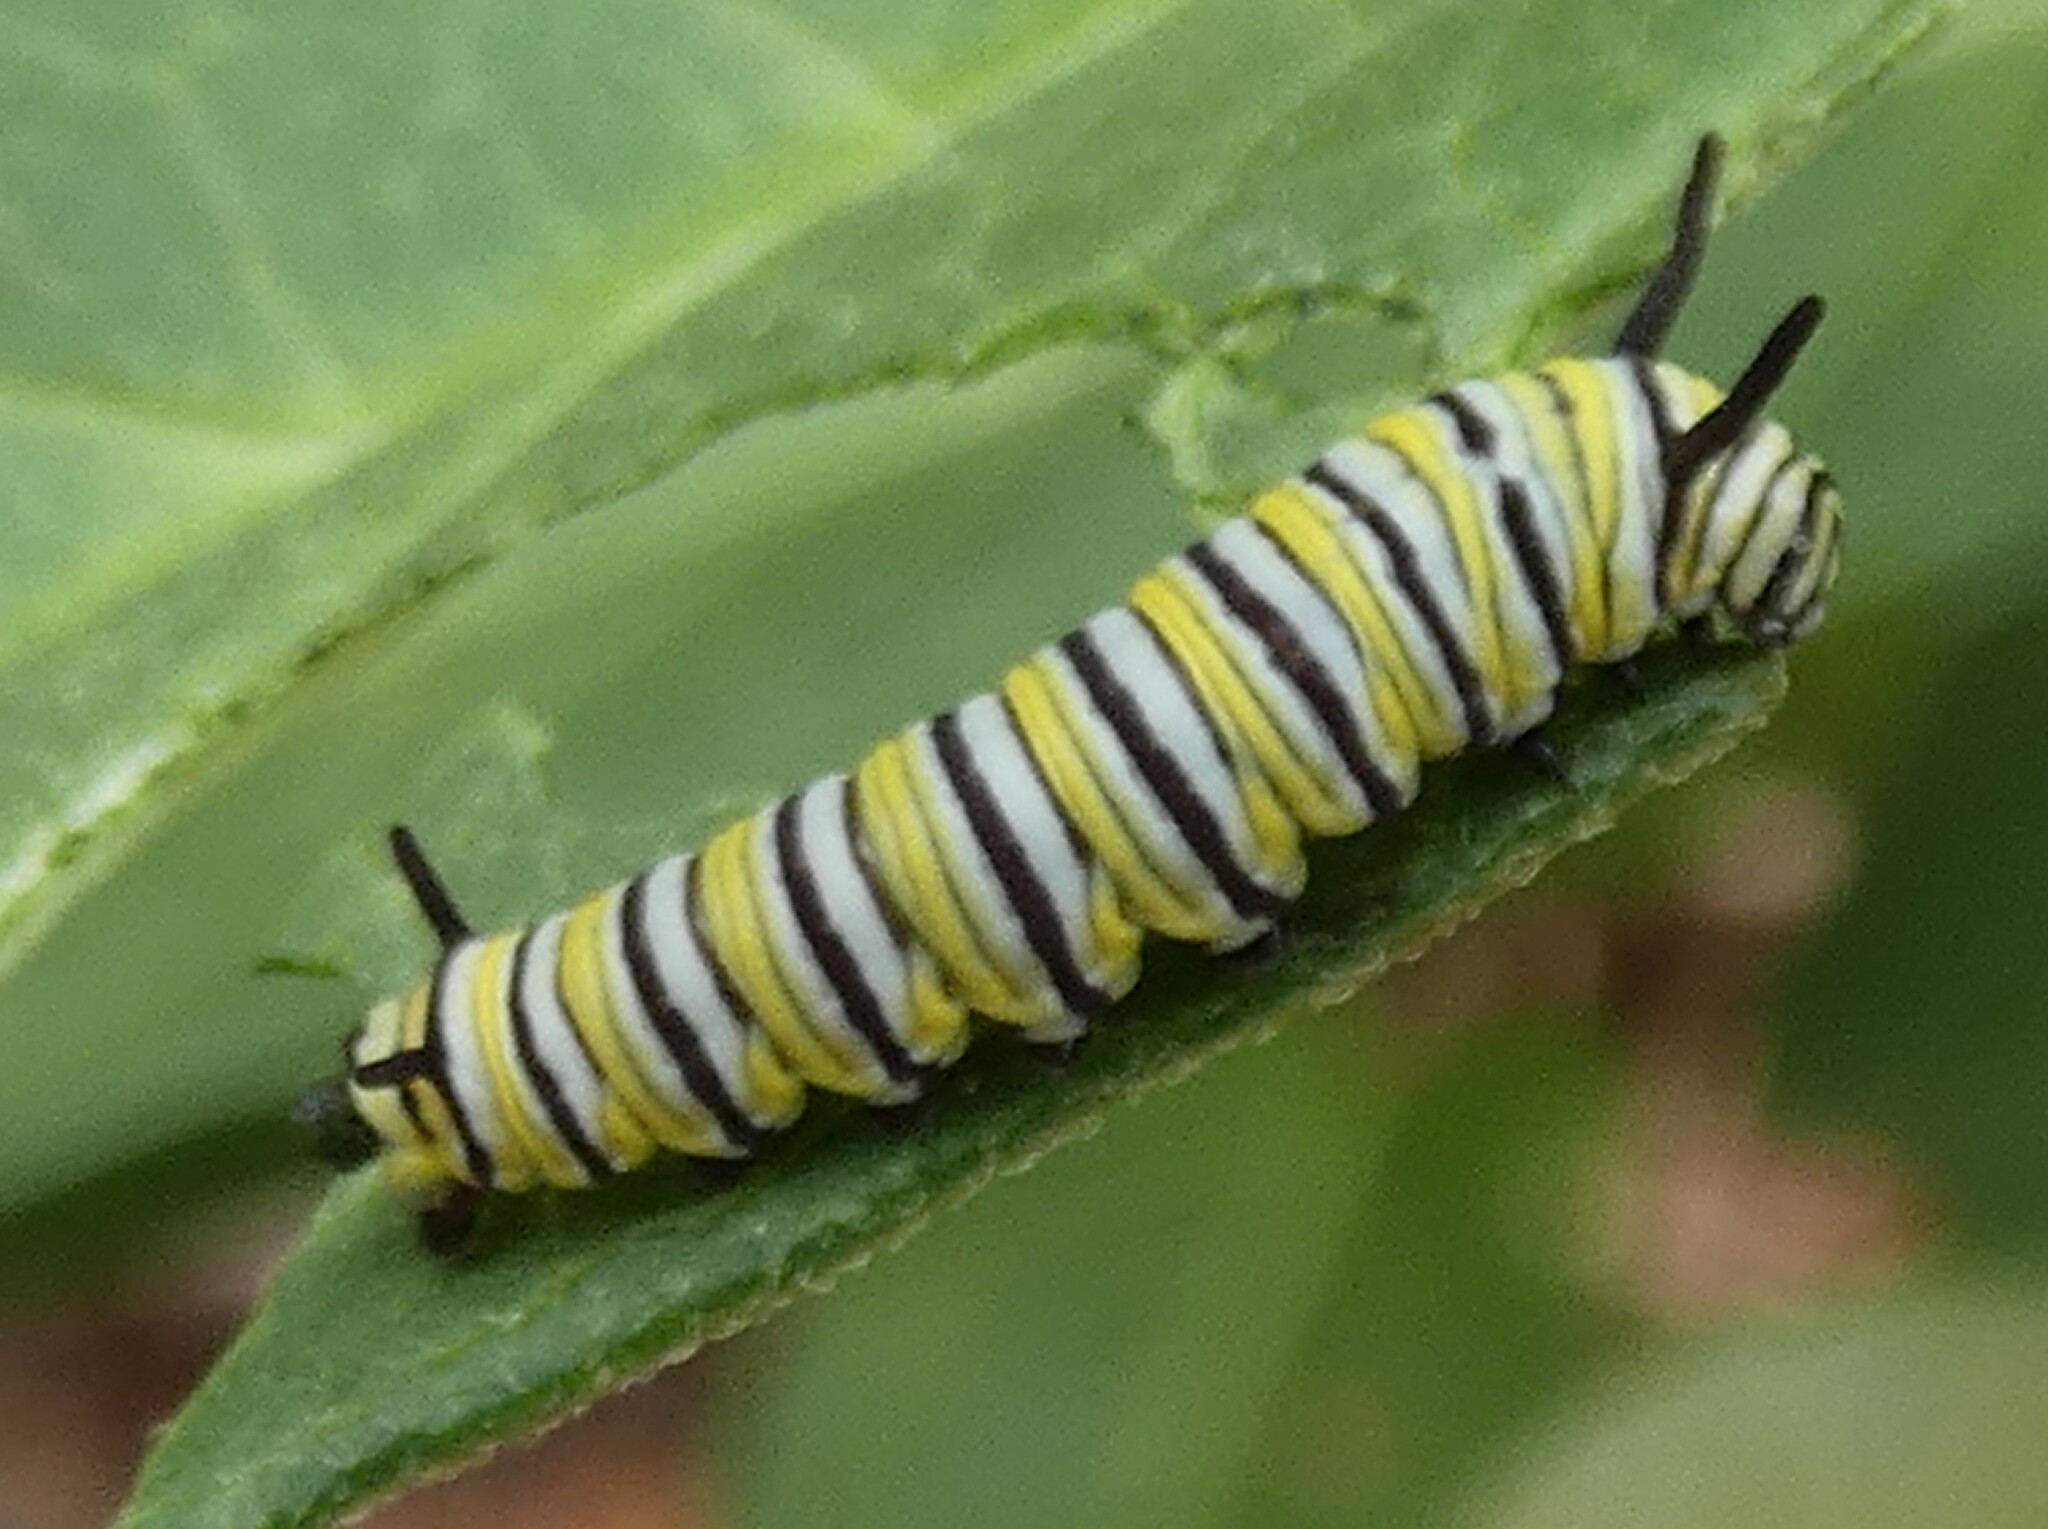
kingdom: Animalia
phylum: Arthropoda
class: Insecta
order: Lepidoptera
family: Nymphalidae
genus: Danaus
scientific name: Danaus plexippus
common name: Monarch
